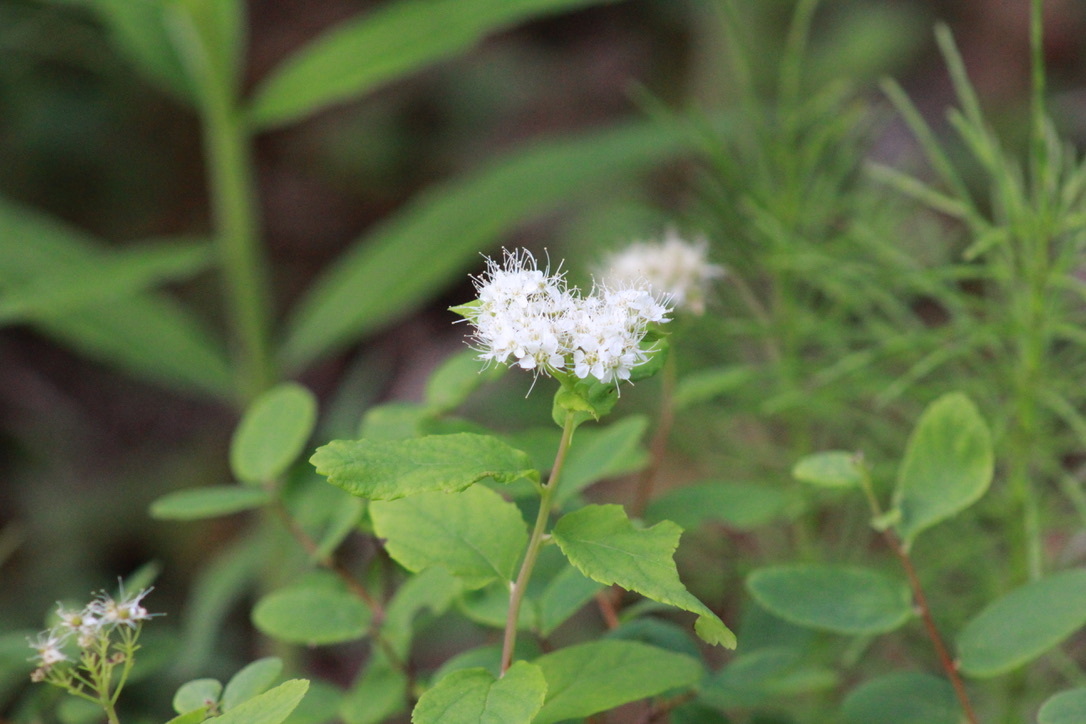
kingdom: Plantae
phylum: Tracheophyta
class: Magnoliopsida
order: Rosales
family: Rosaceae
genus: Spiraea
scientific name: Spiraea stevenii
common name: Steven's meadowsweet
